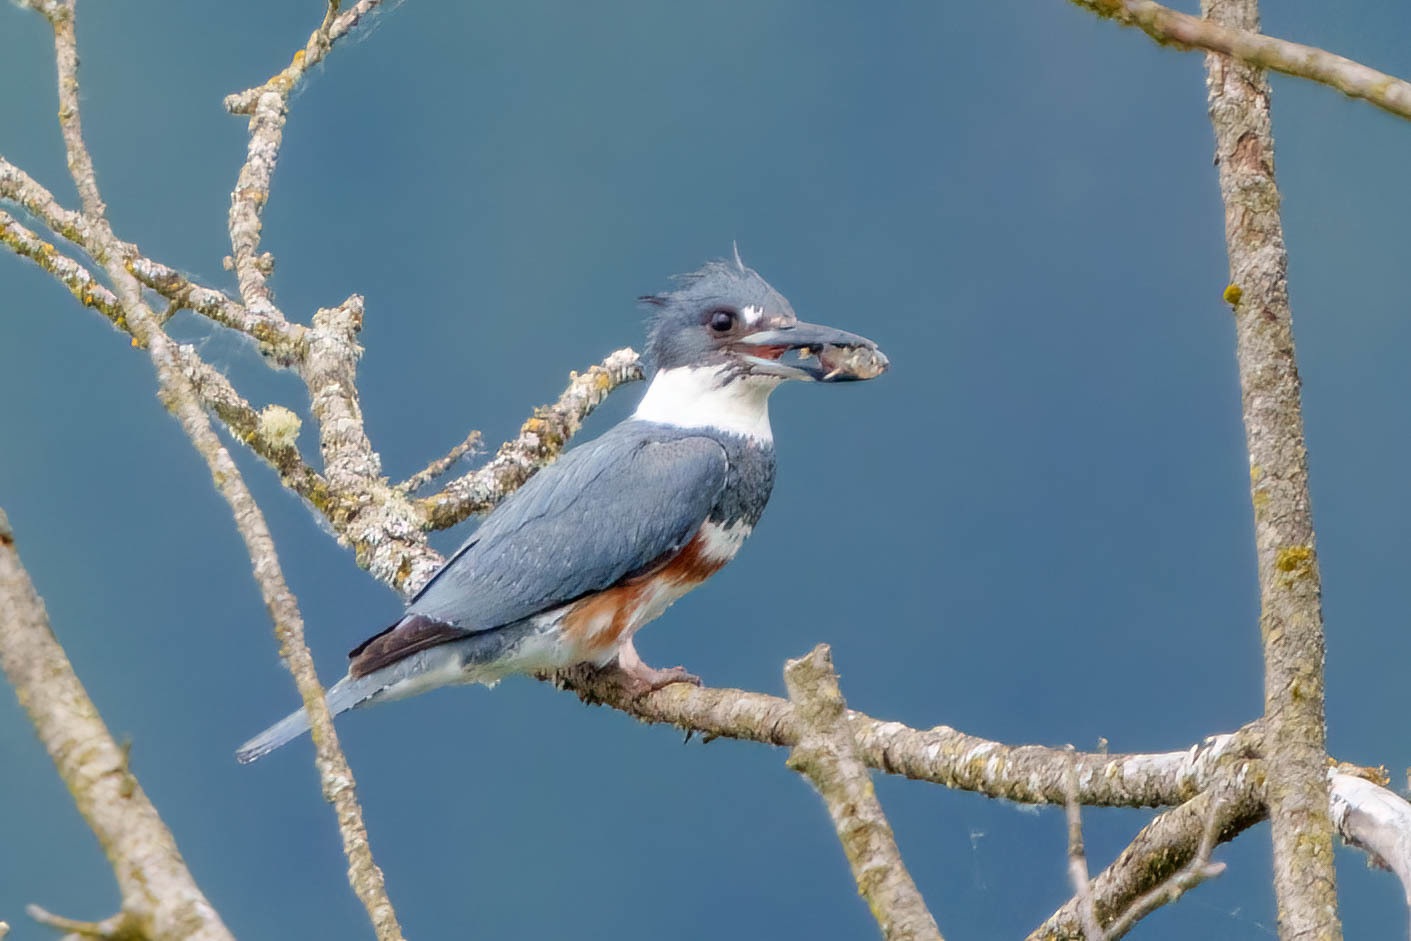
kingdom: Animalia
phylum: Chordata
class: Aves
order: Coraciiformes
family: Alcedinidae
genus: Megaceryle
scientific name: Megaceryle alcyon
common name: Belted kingfisher
